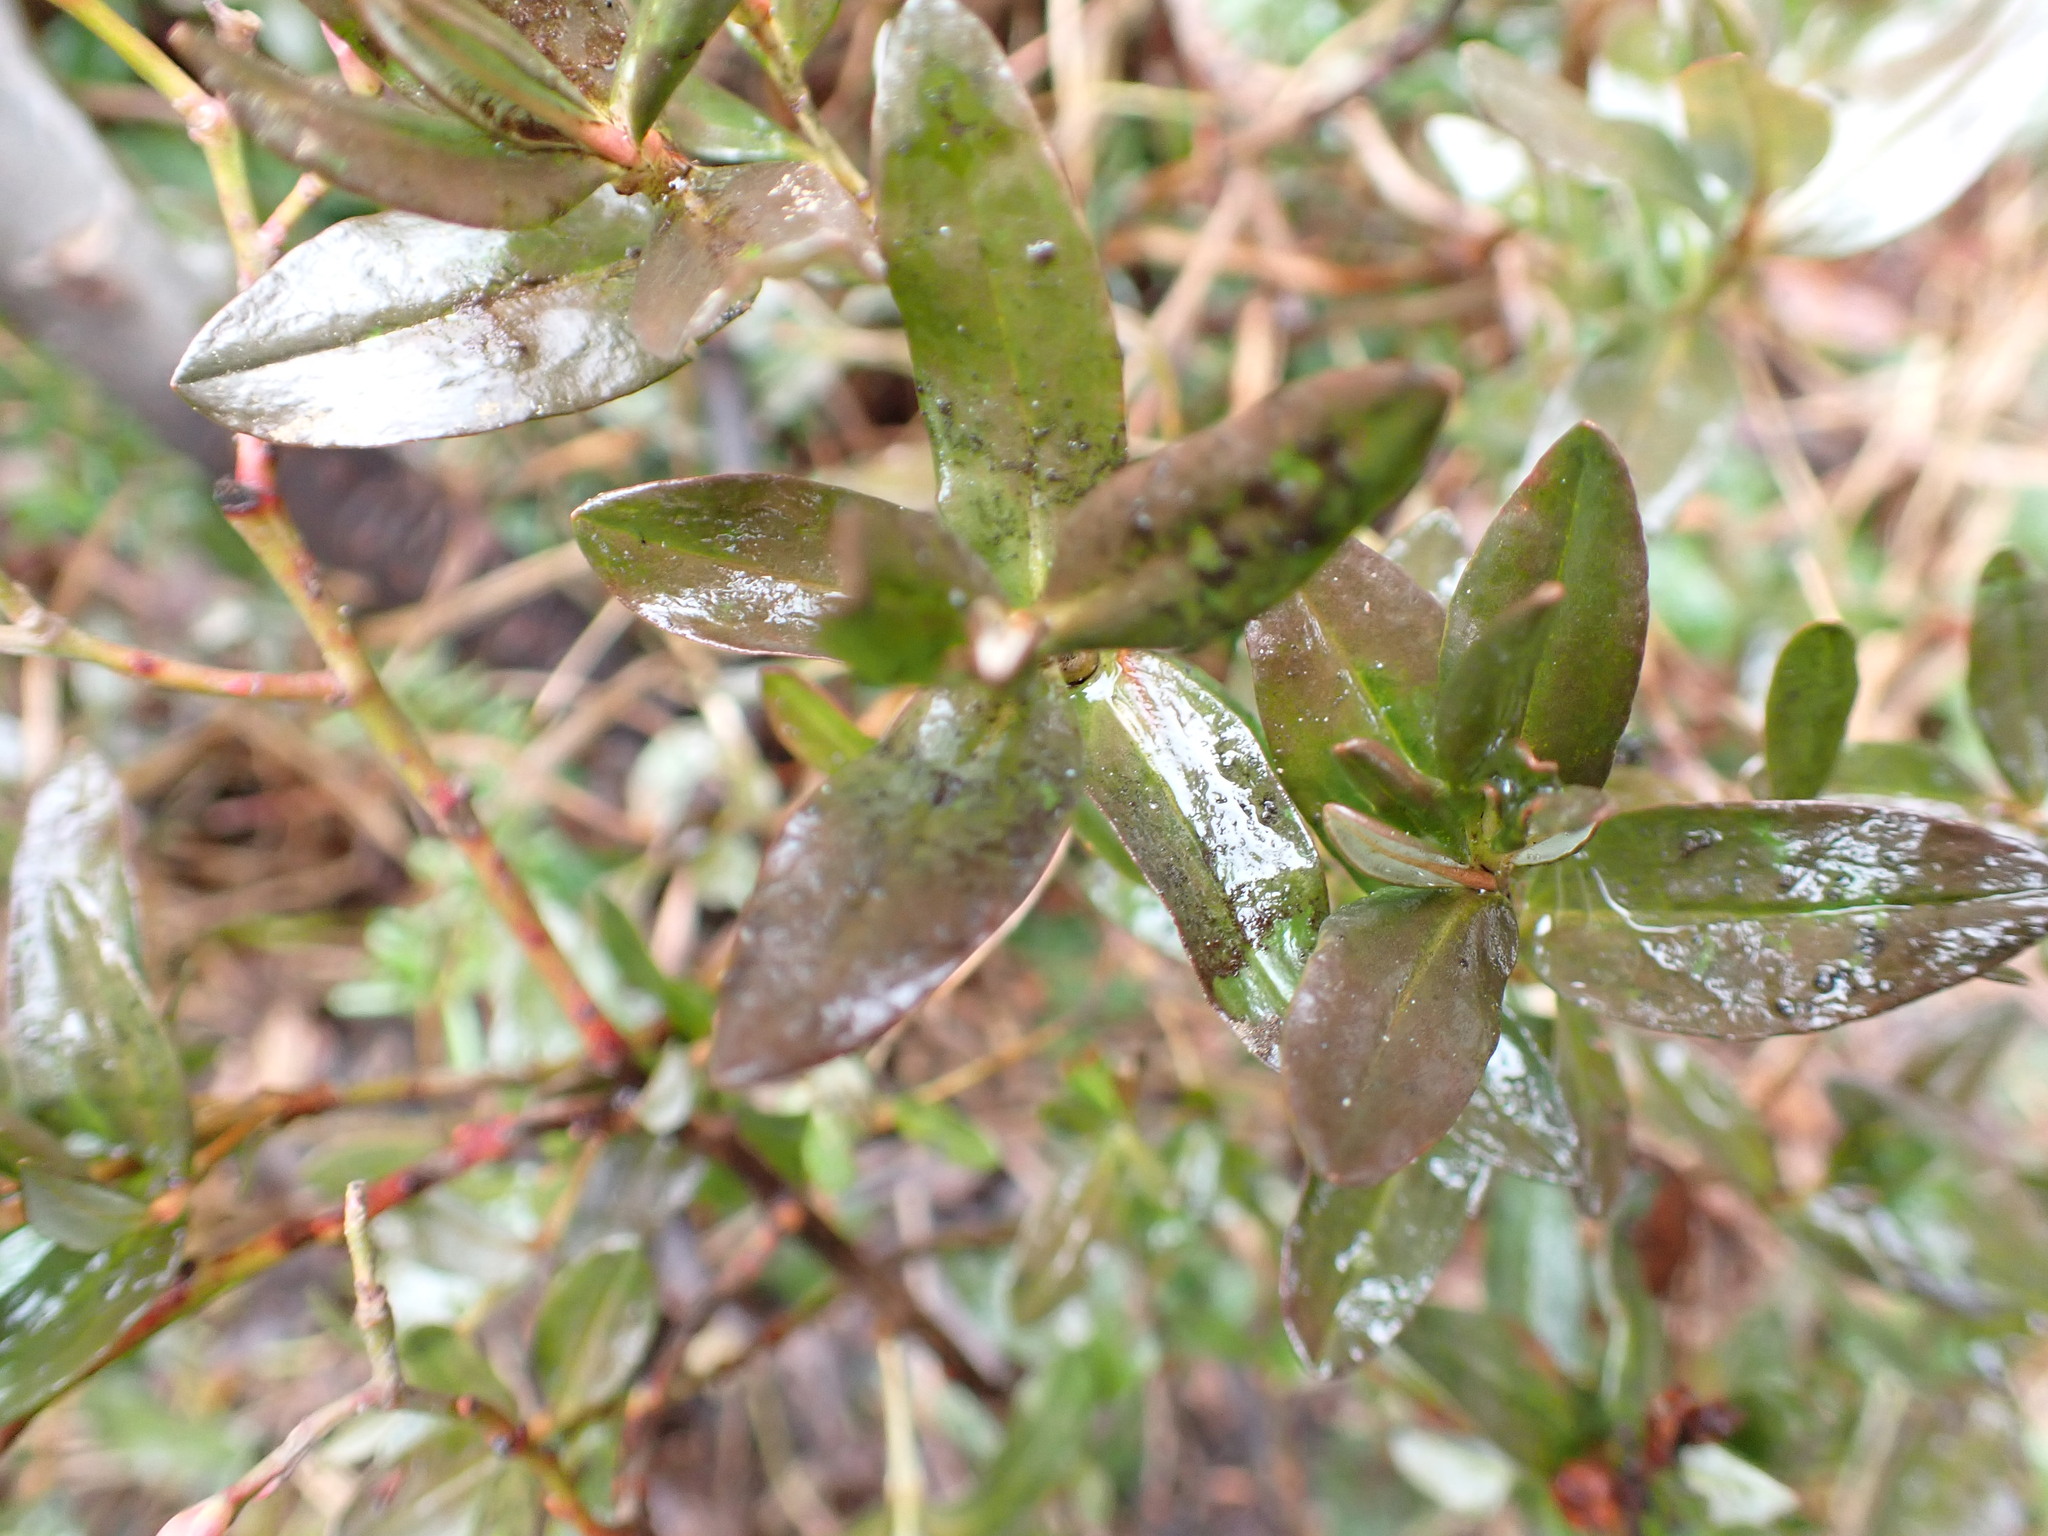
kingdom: Plantae
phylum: Tracheophyta
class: Magnoliopsida
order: Ericales
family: Ericaceae
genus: Kalmia
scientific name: Kalmia microphylla
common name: Alpine bog laurel
